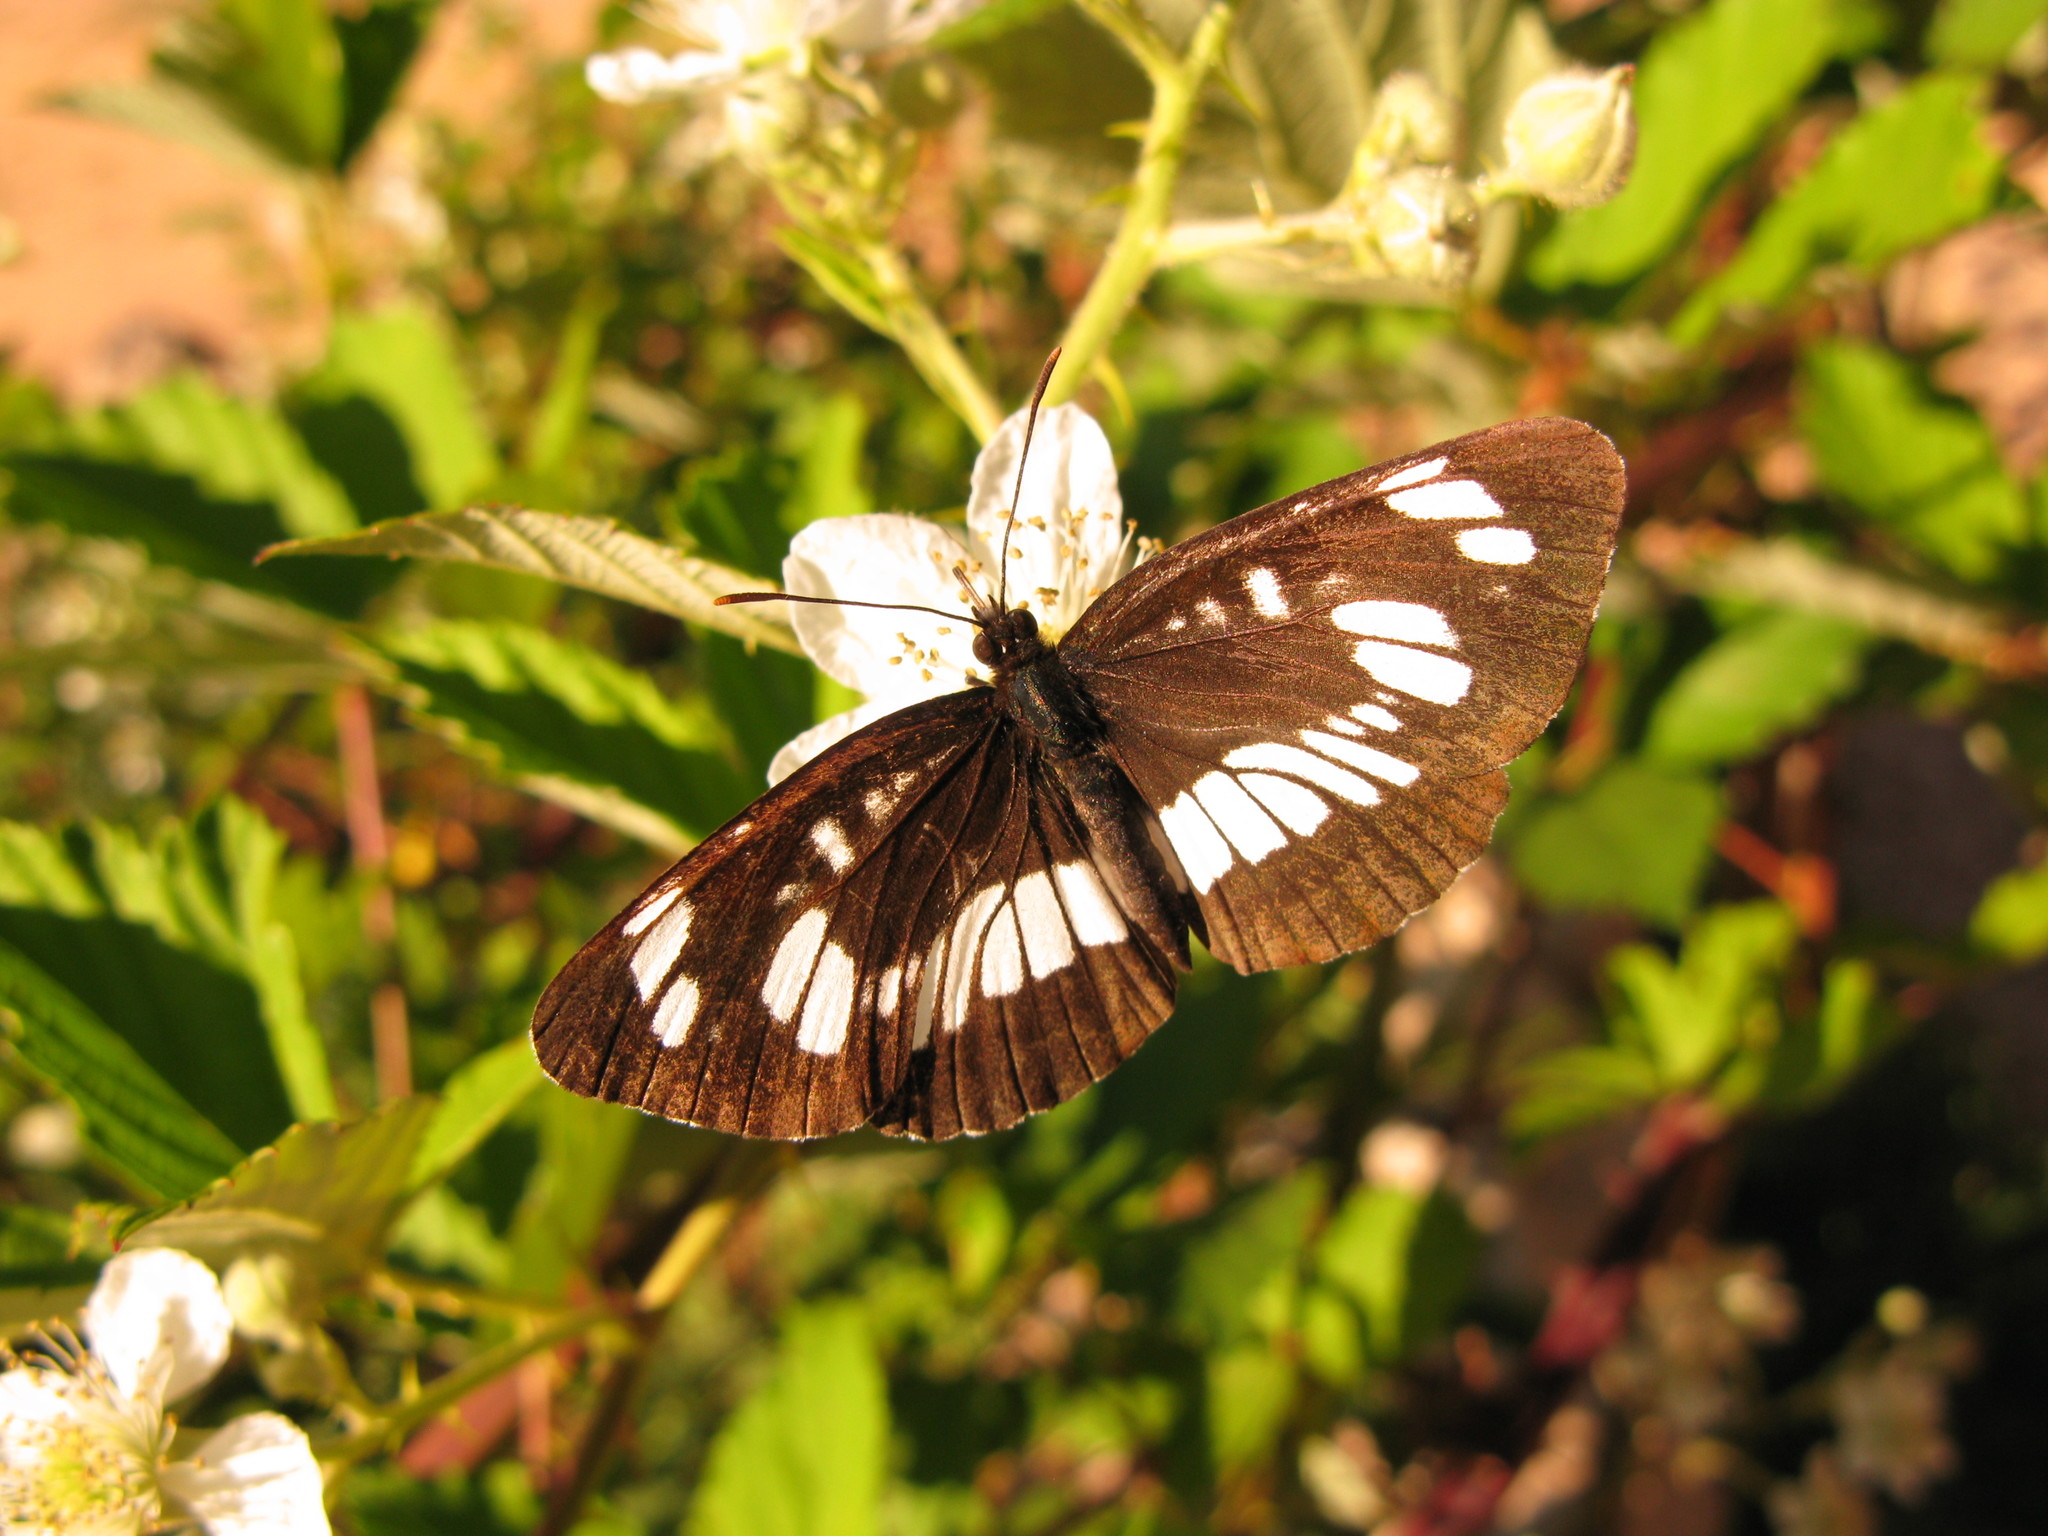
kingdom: Animalia
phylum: Arthropoda
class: Insecta
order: Lepidoptera
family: Nymphalidae
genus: Neptis
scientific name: Neptis rivularis
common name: Hungarian glider
